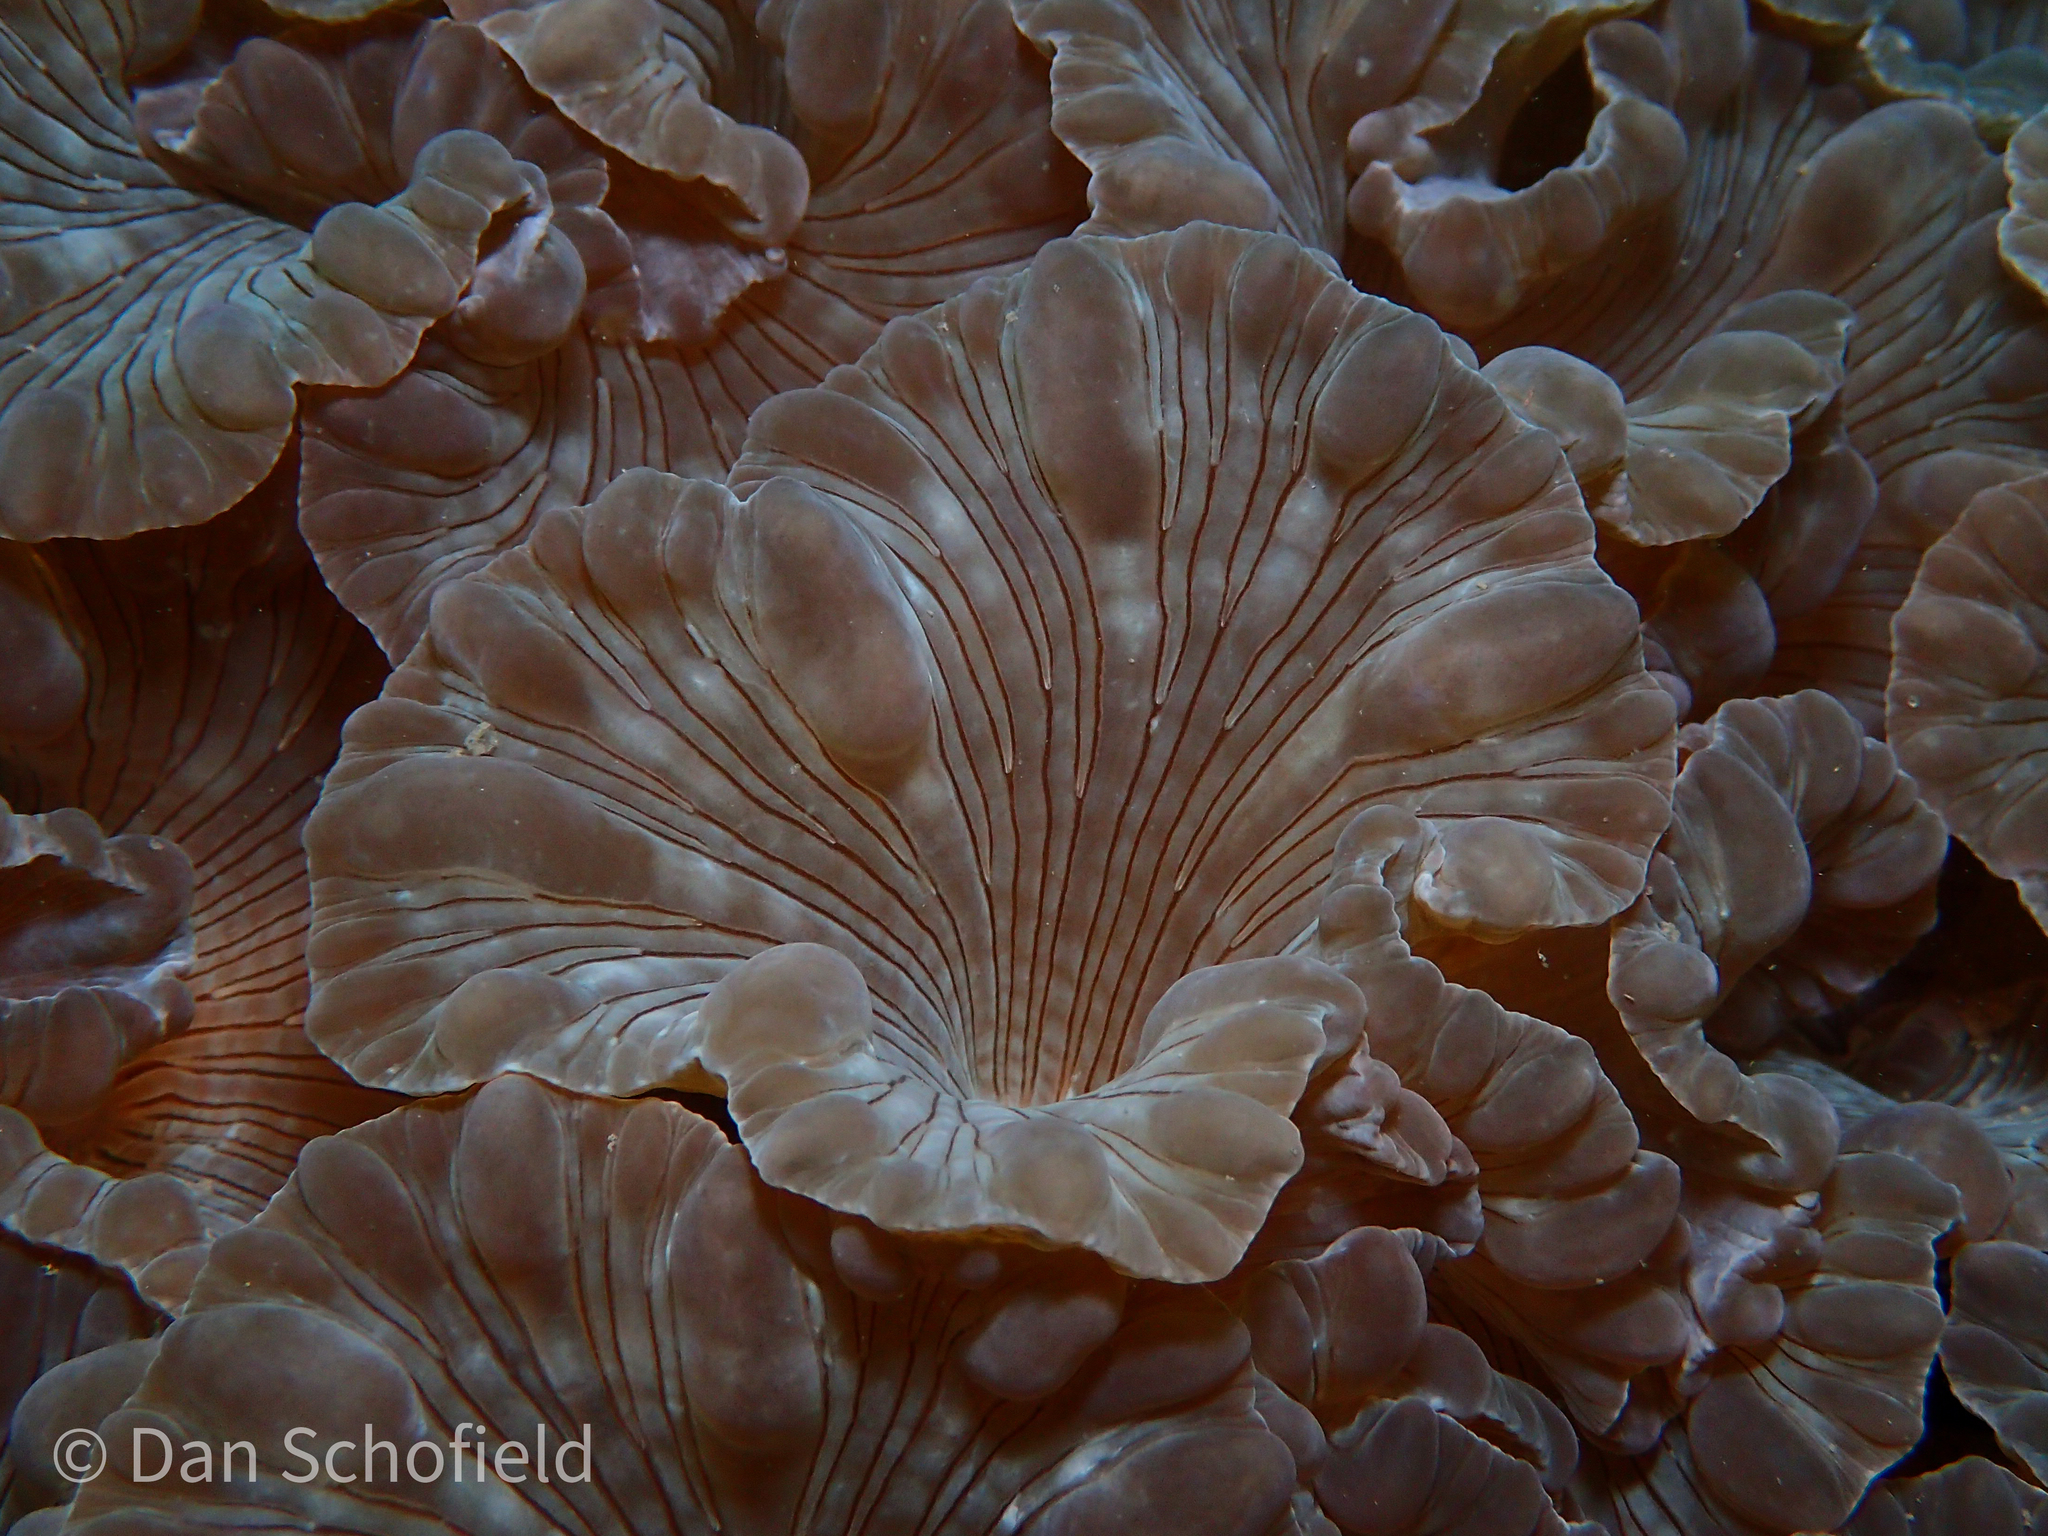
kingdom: Animalia
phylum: Cnidaria
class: Anthozoa
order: Scleractinia
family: Plerogyridae
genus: Nemenzophyllia
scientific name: Nemenzophyllia turbida
